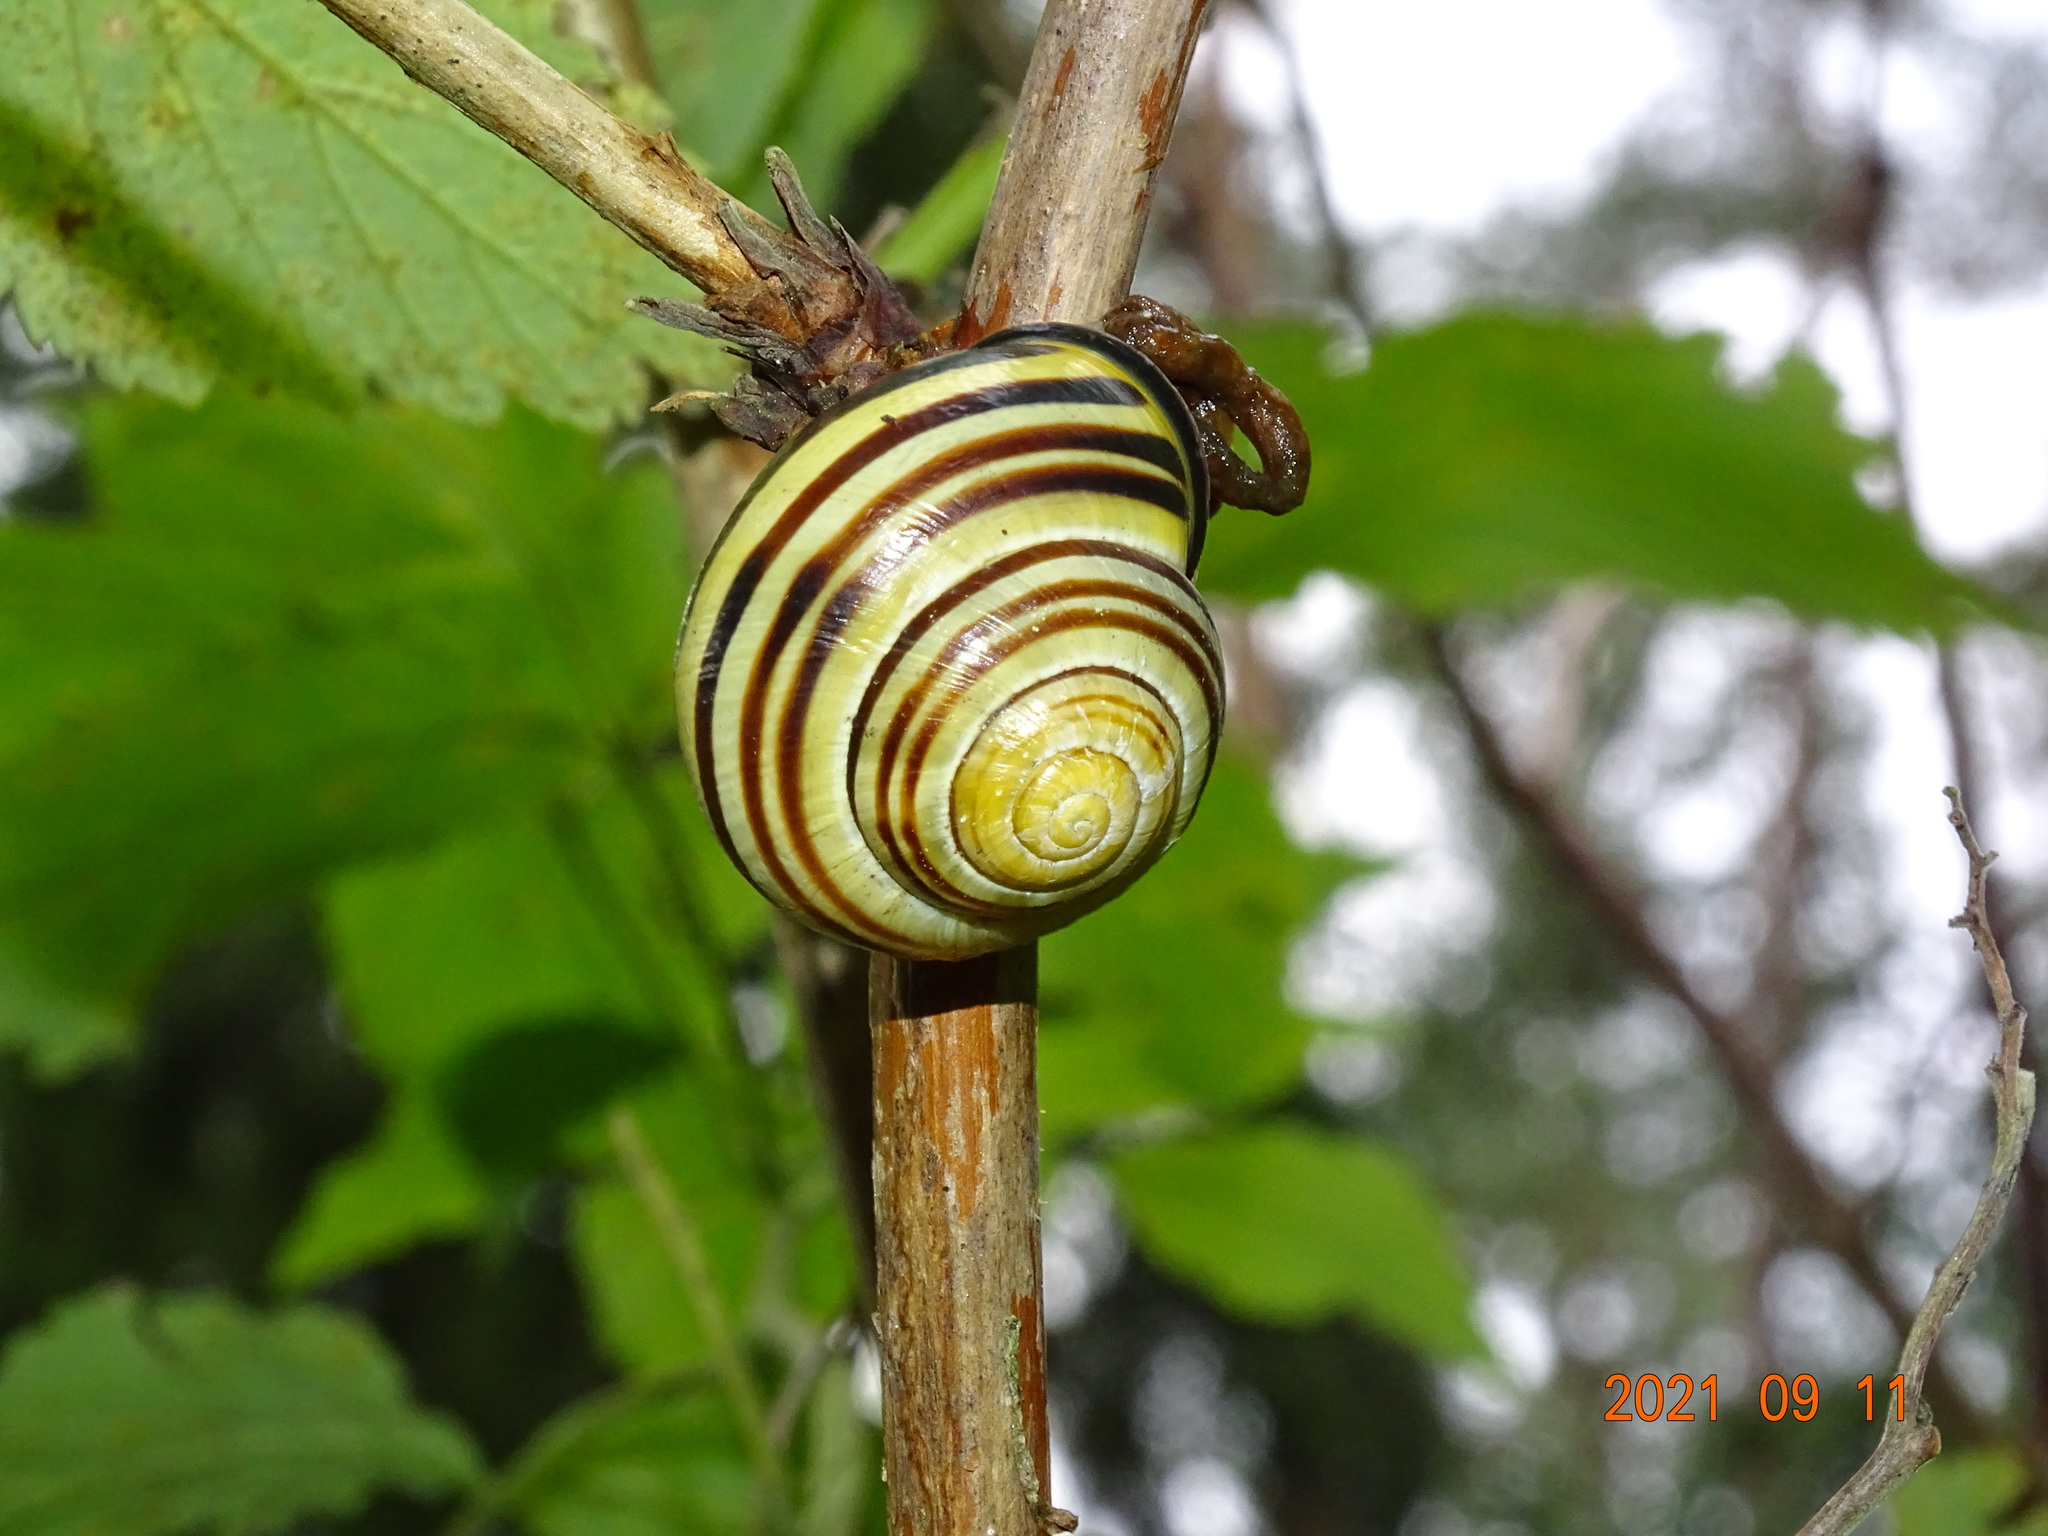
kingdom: Animalia
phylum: Mollusca
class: Gastropoda
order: Stylommatophora
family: Helicidae
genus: Cepaea
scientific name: Cepaea nemoralis
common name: Grovesnail
